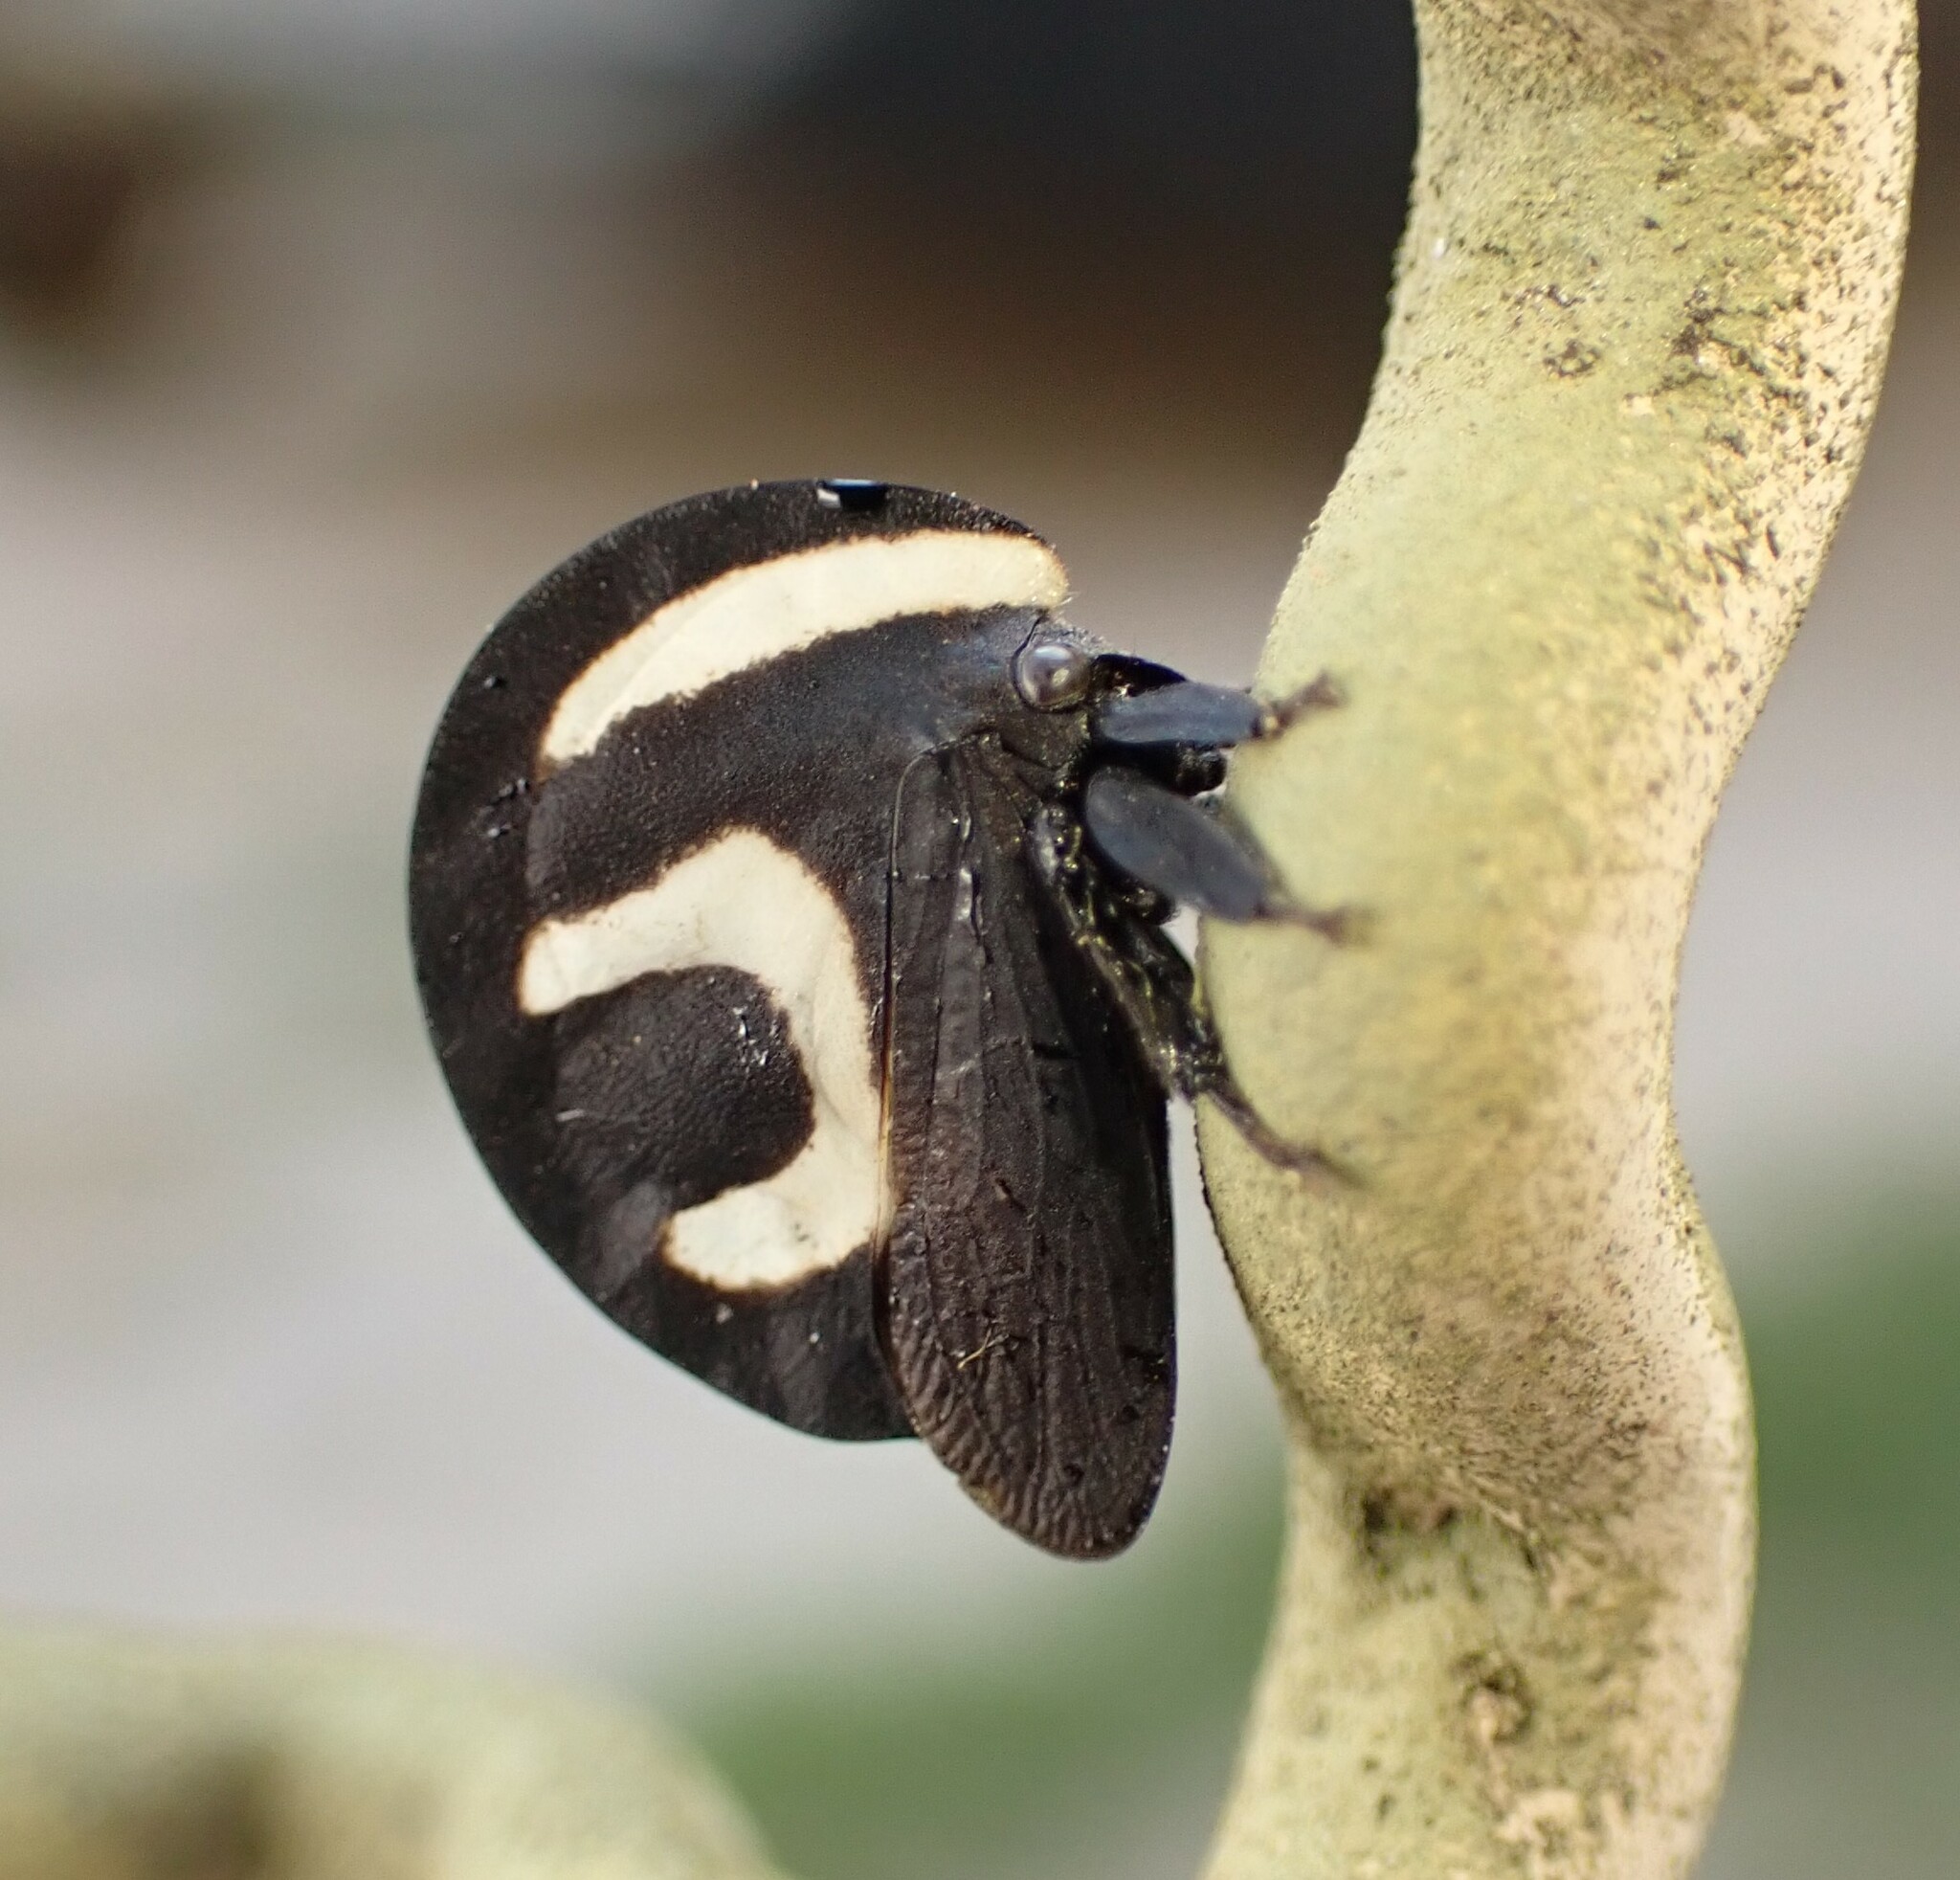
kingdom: Animalia
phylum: Arthropoda
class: Insecta
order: Hemiptera
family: Membracidae
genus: Membracis
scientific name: Membracis foliatafasciata
